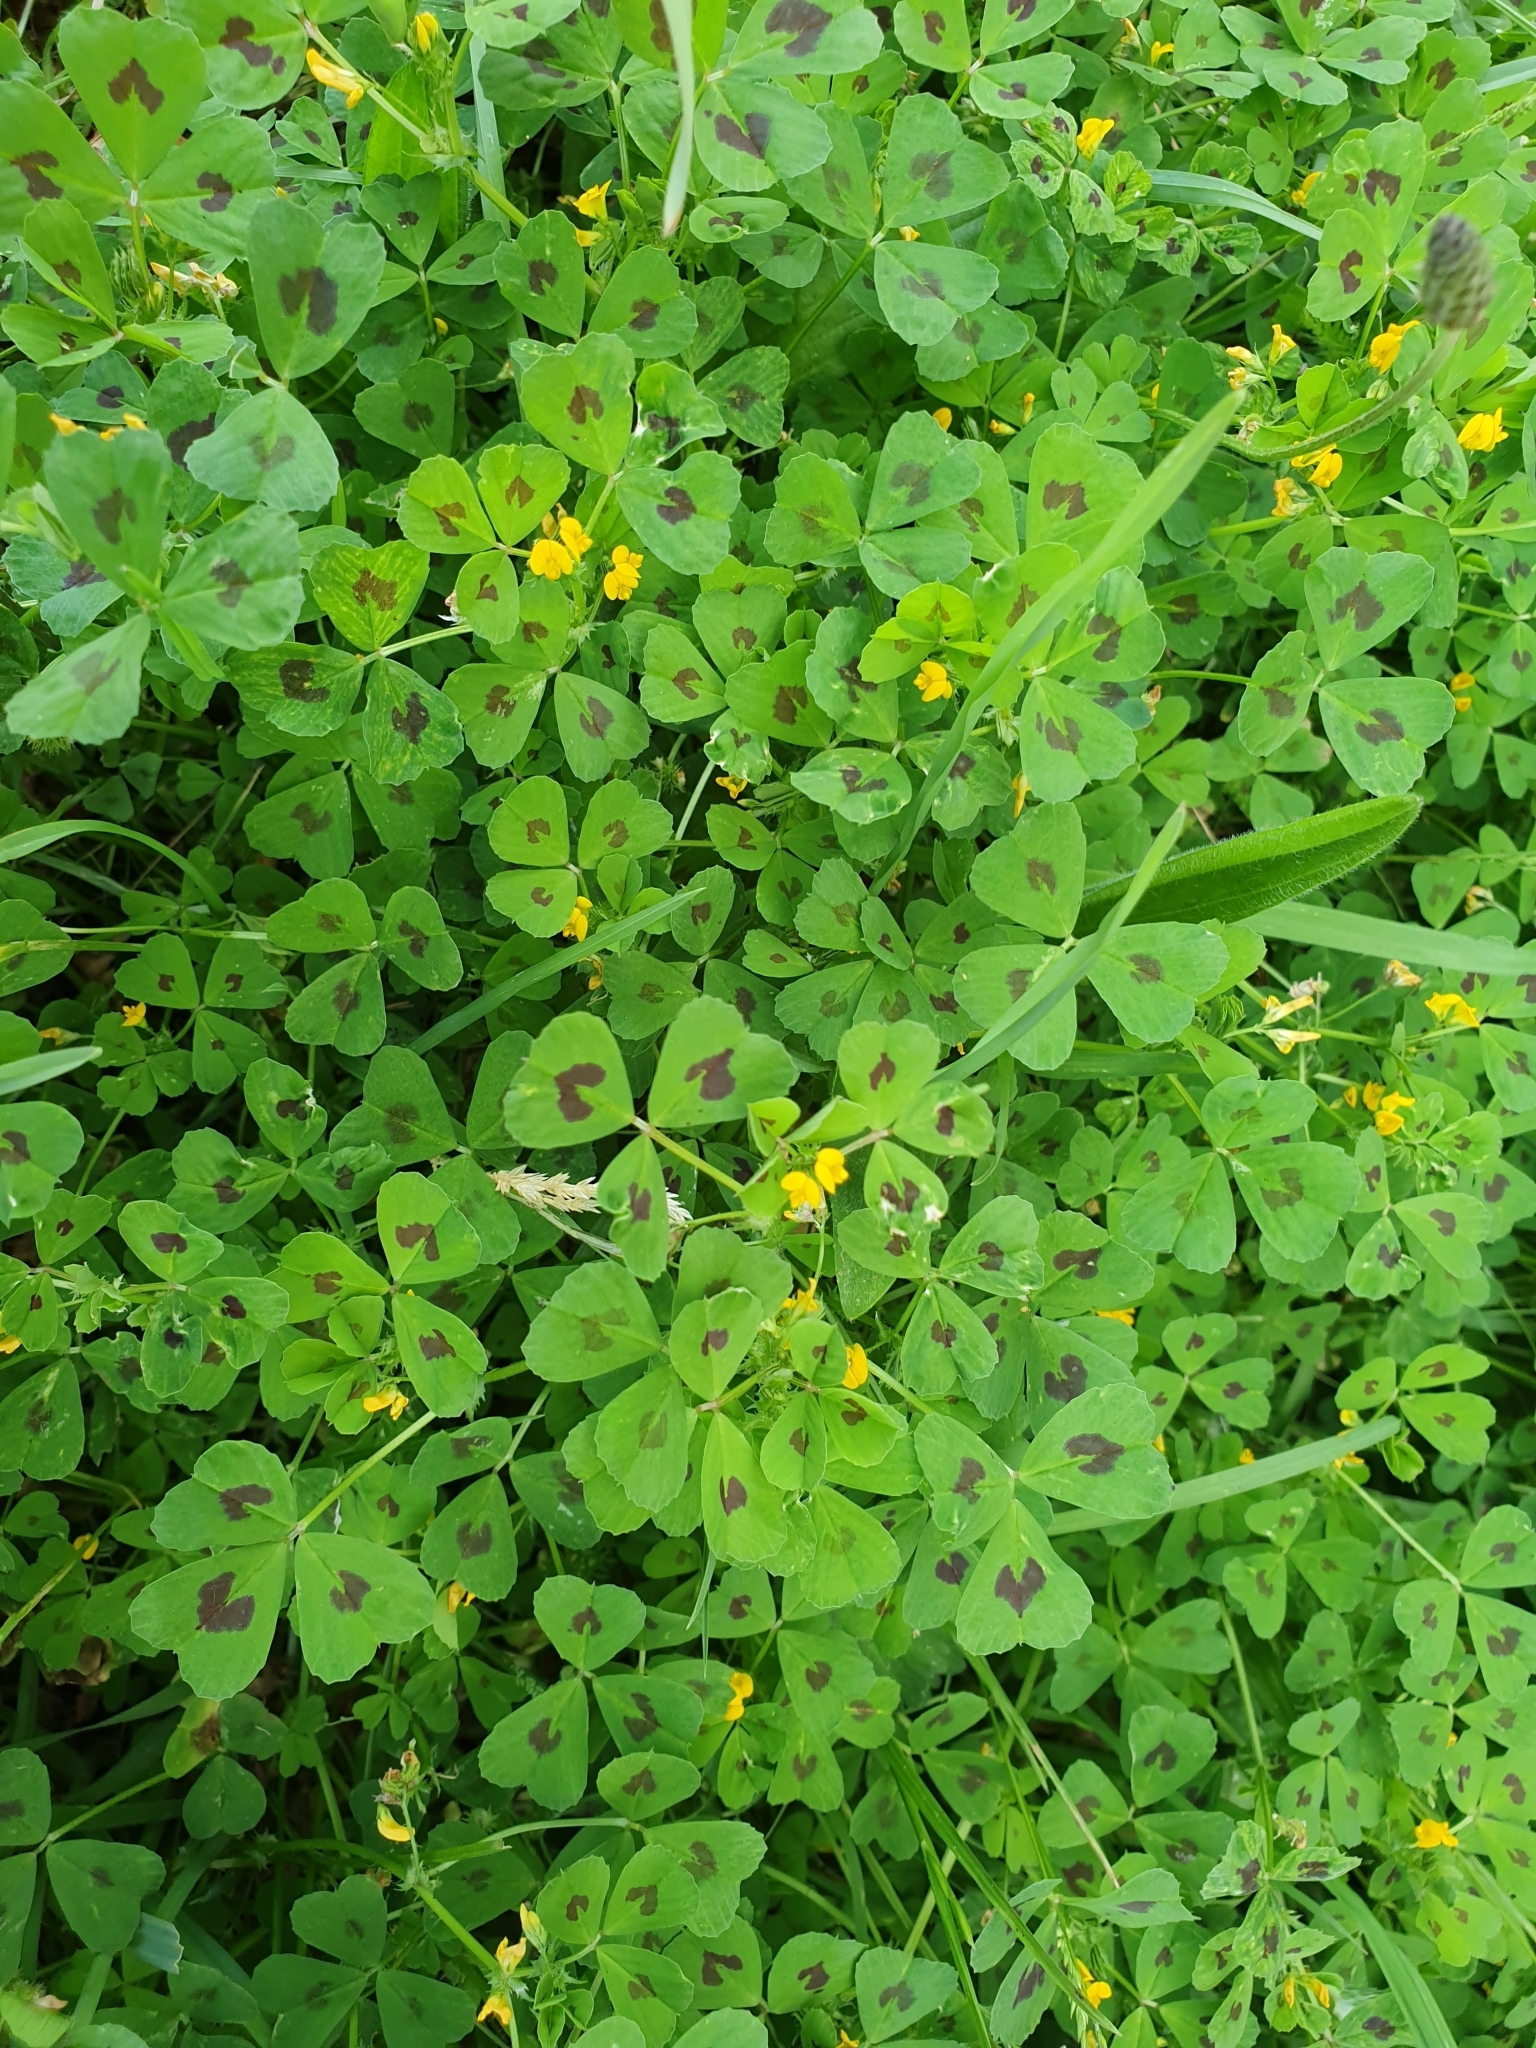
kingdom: Plantae
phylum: Tracheophyta
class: Magnoliopsida
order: Fabales
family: Fabaceae
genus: Medicago
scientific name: Medicago arabica
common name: Spotted medick
